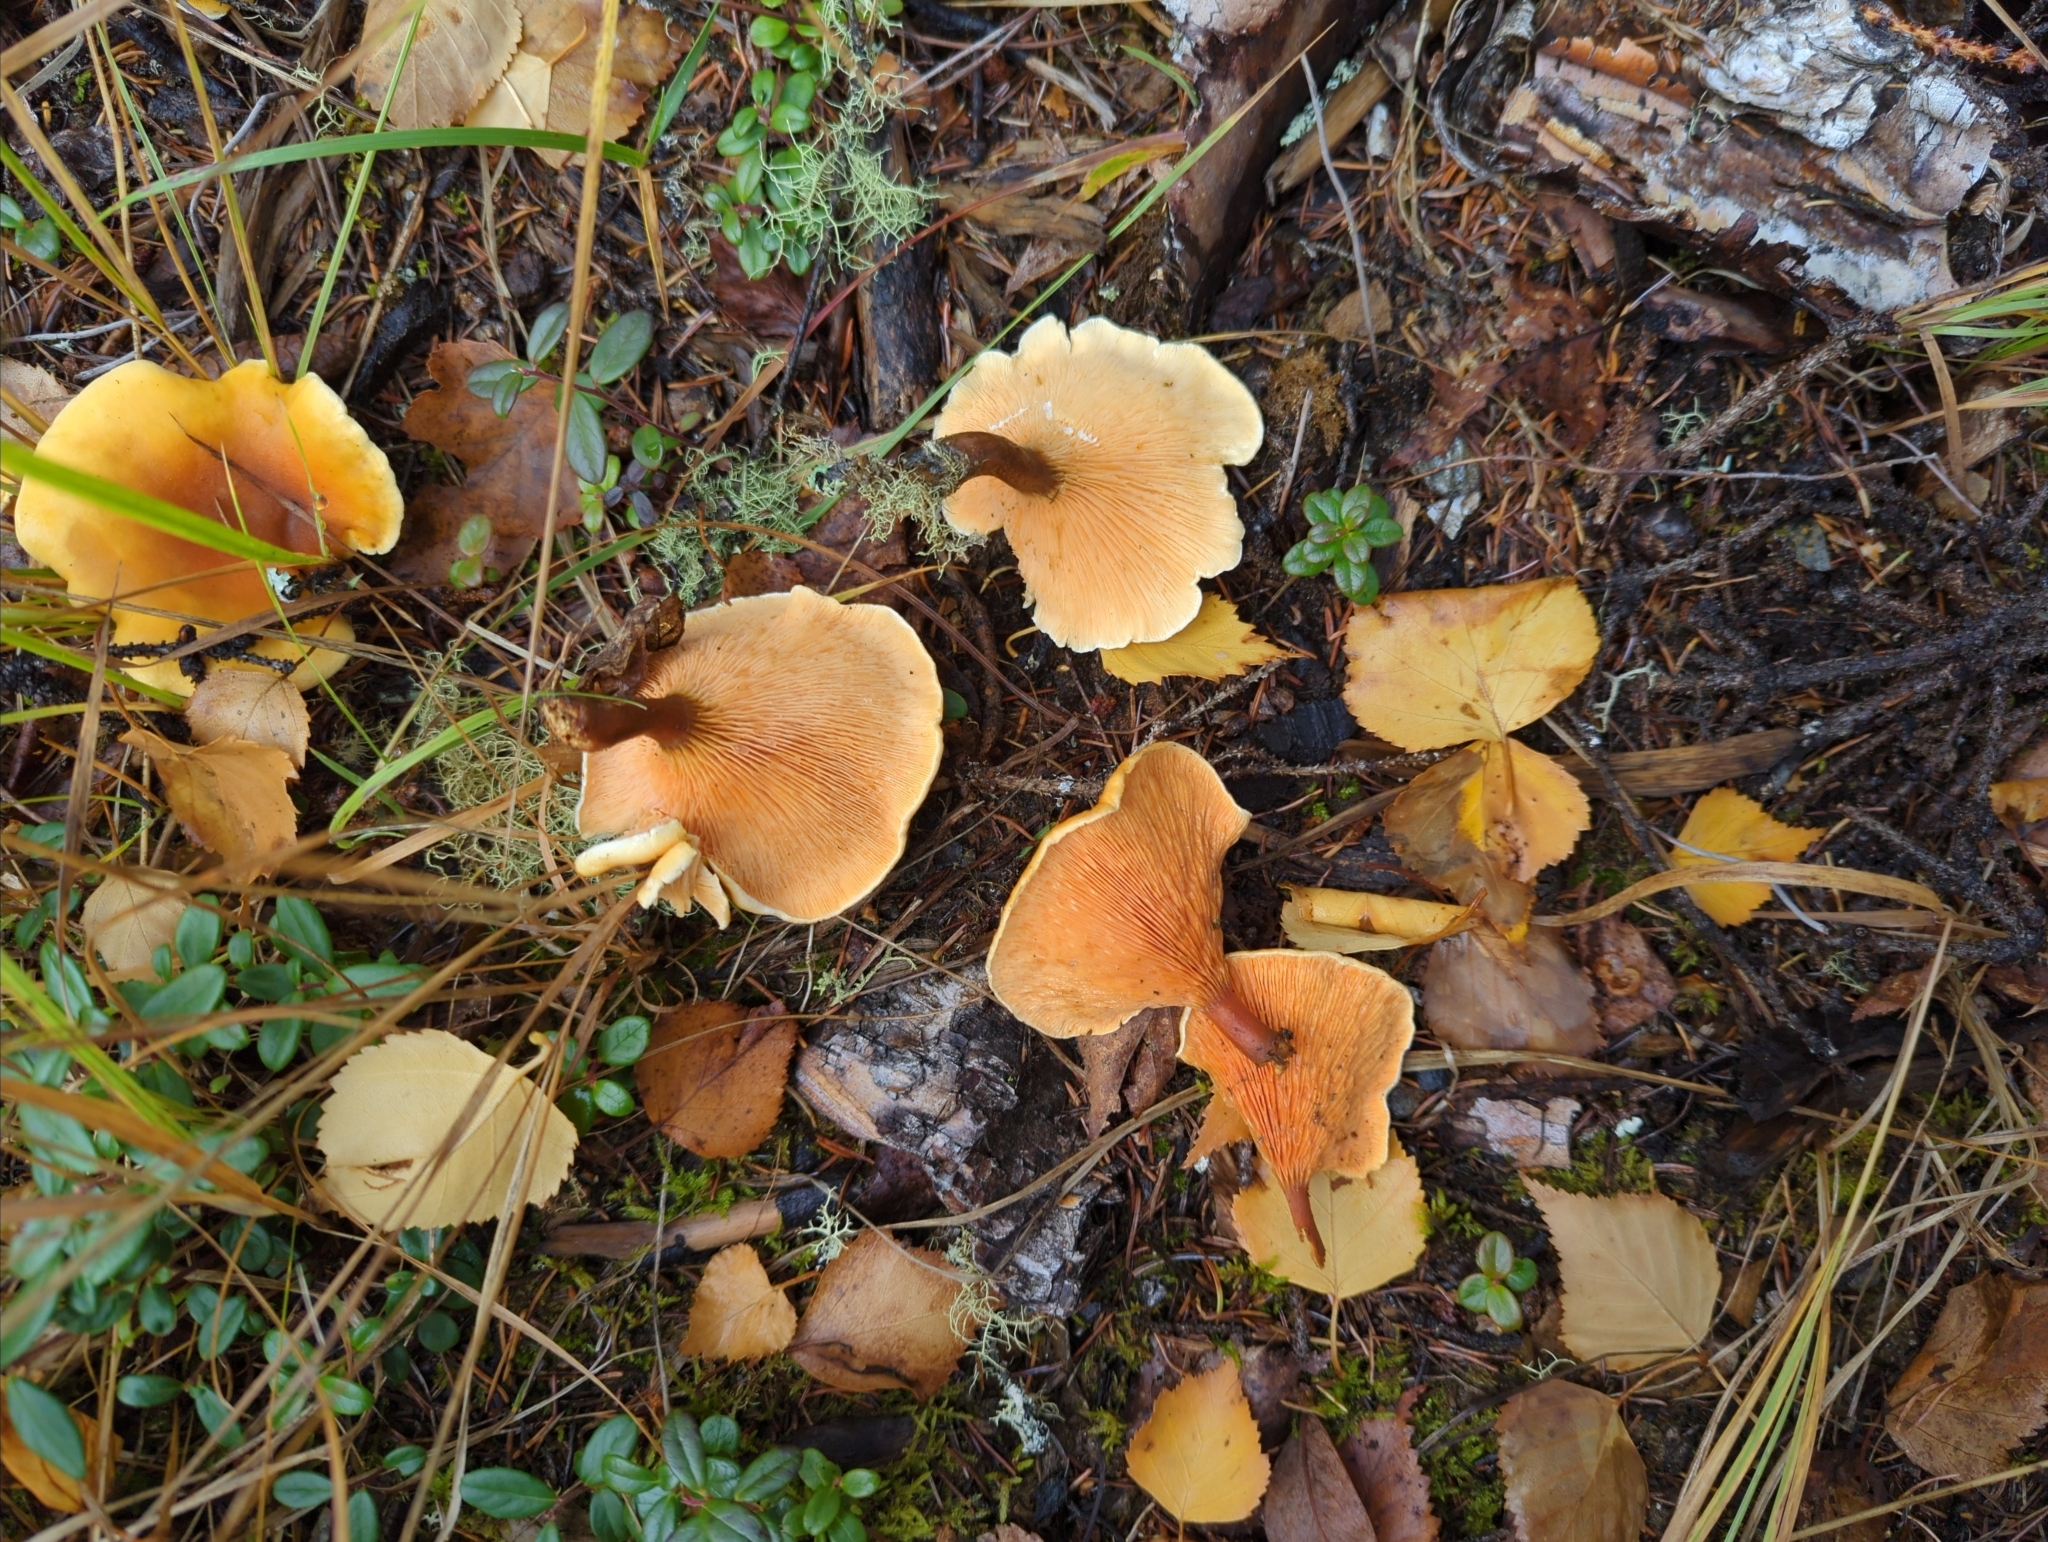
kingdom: Fungi
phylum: Basidiomycota
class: Agaricomycetes
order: Boletales
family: Hygrophoropsidaceae
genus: Hygrophoropsis
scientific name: Hygrophoropsis aurantiaca
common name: False chanterelle
